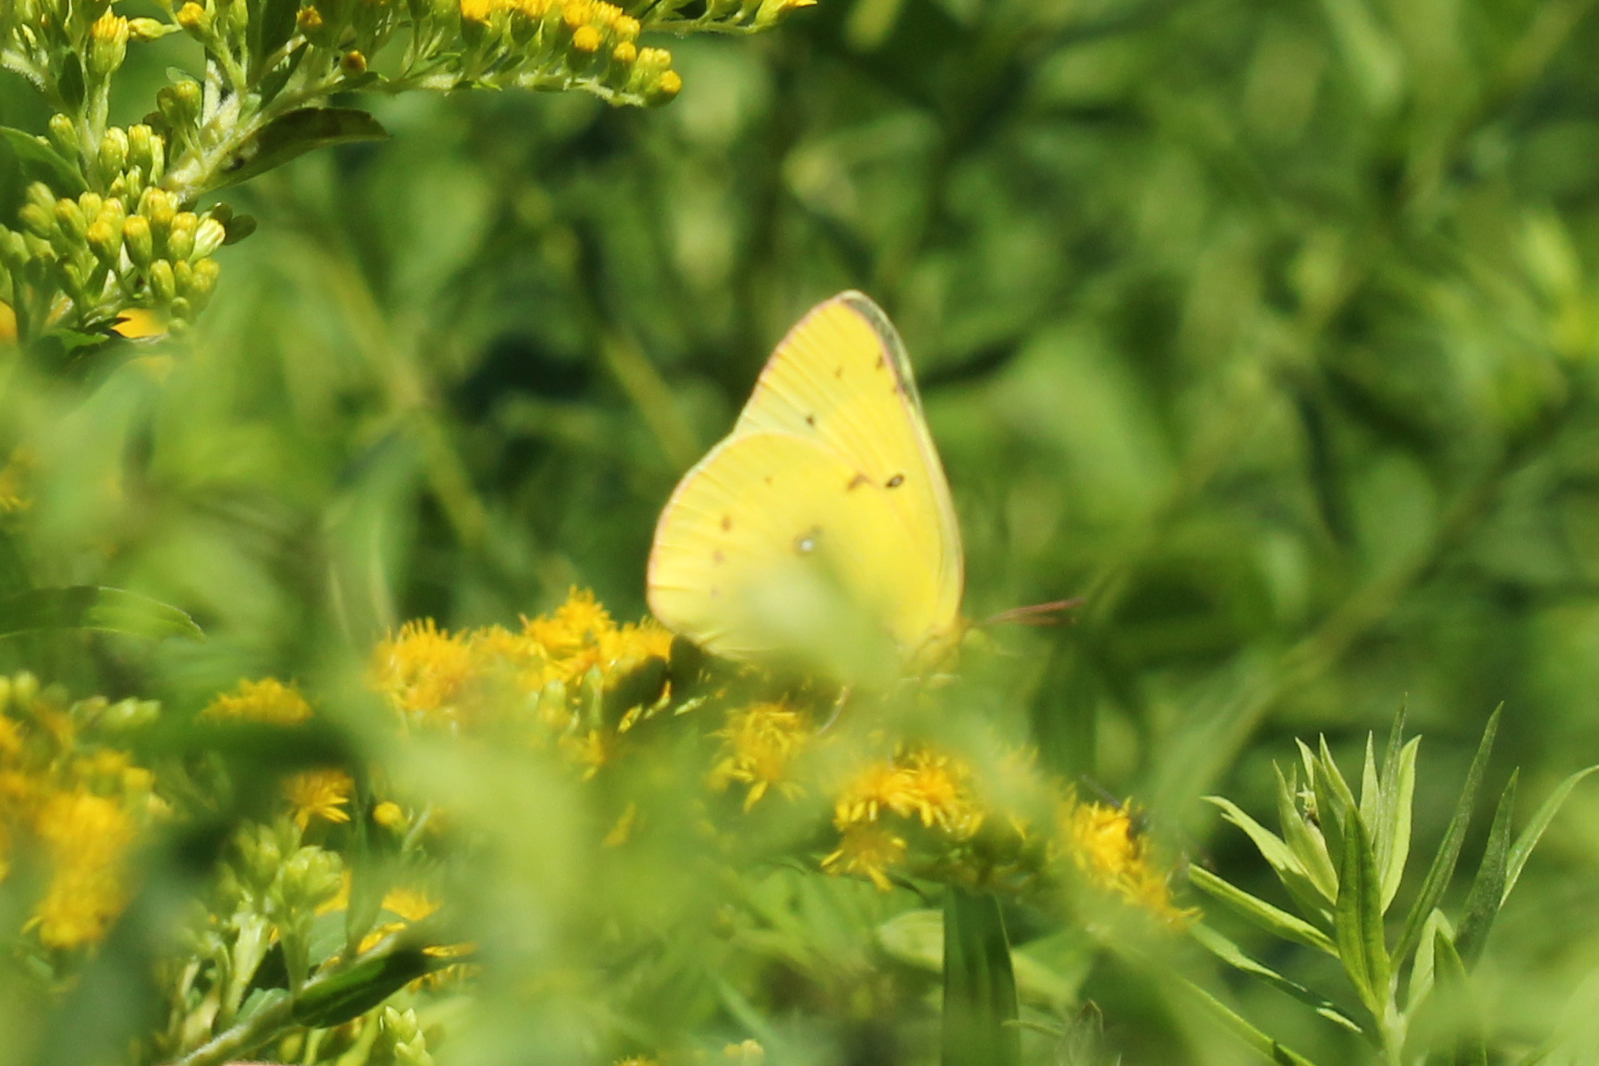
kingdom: Animalia
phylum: Arthropoda
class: Insecta
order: Lepidoptera
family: Pieridae
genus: Colias
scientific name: Colias eurytheme
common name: Alfalfa butterfly
